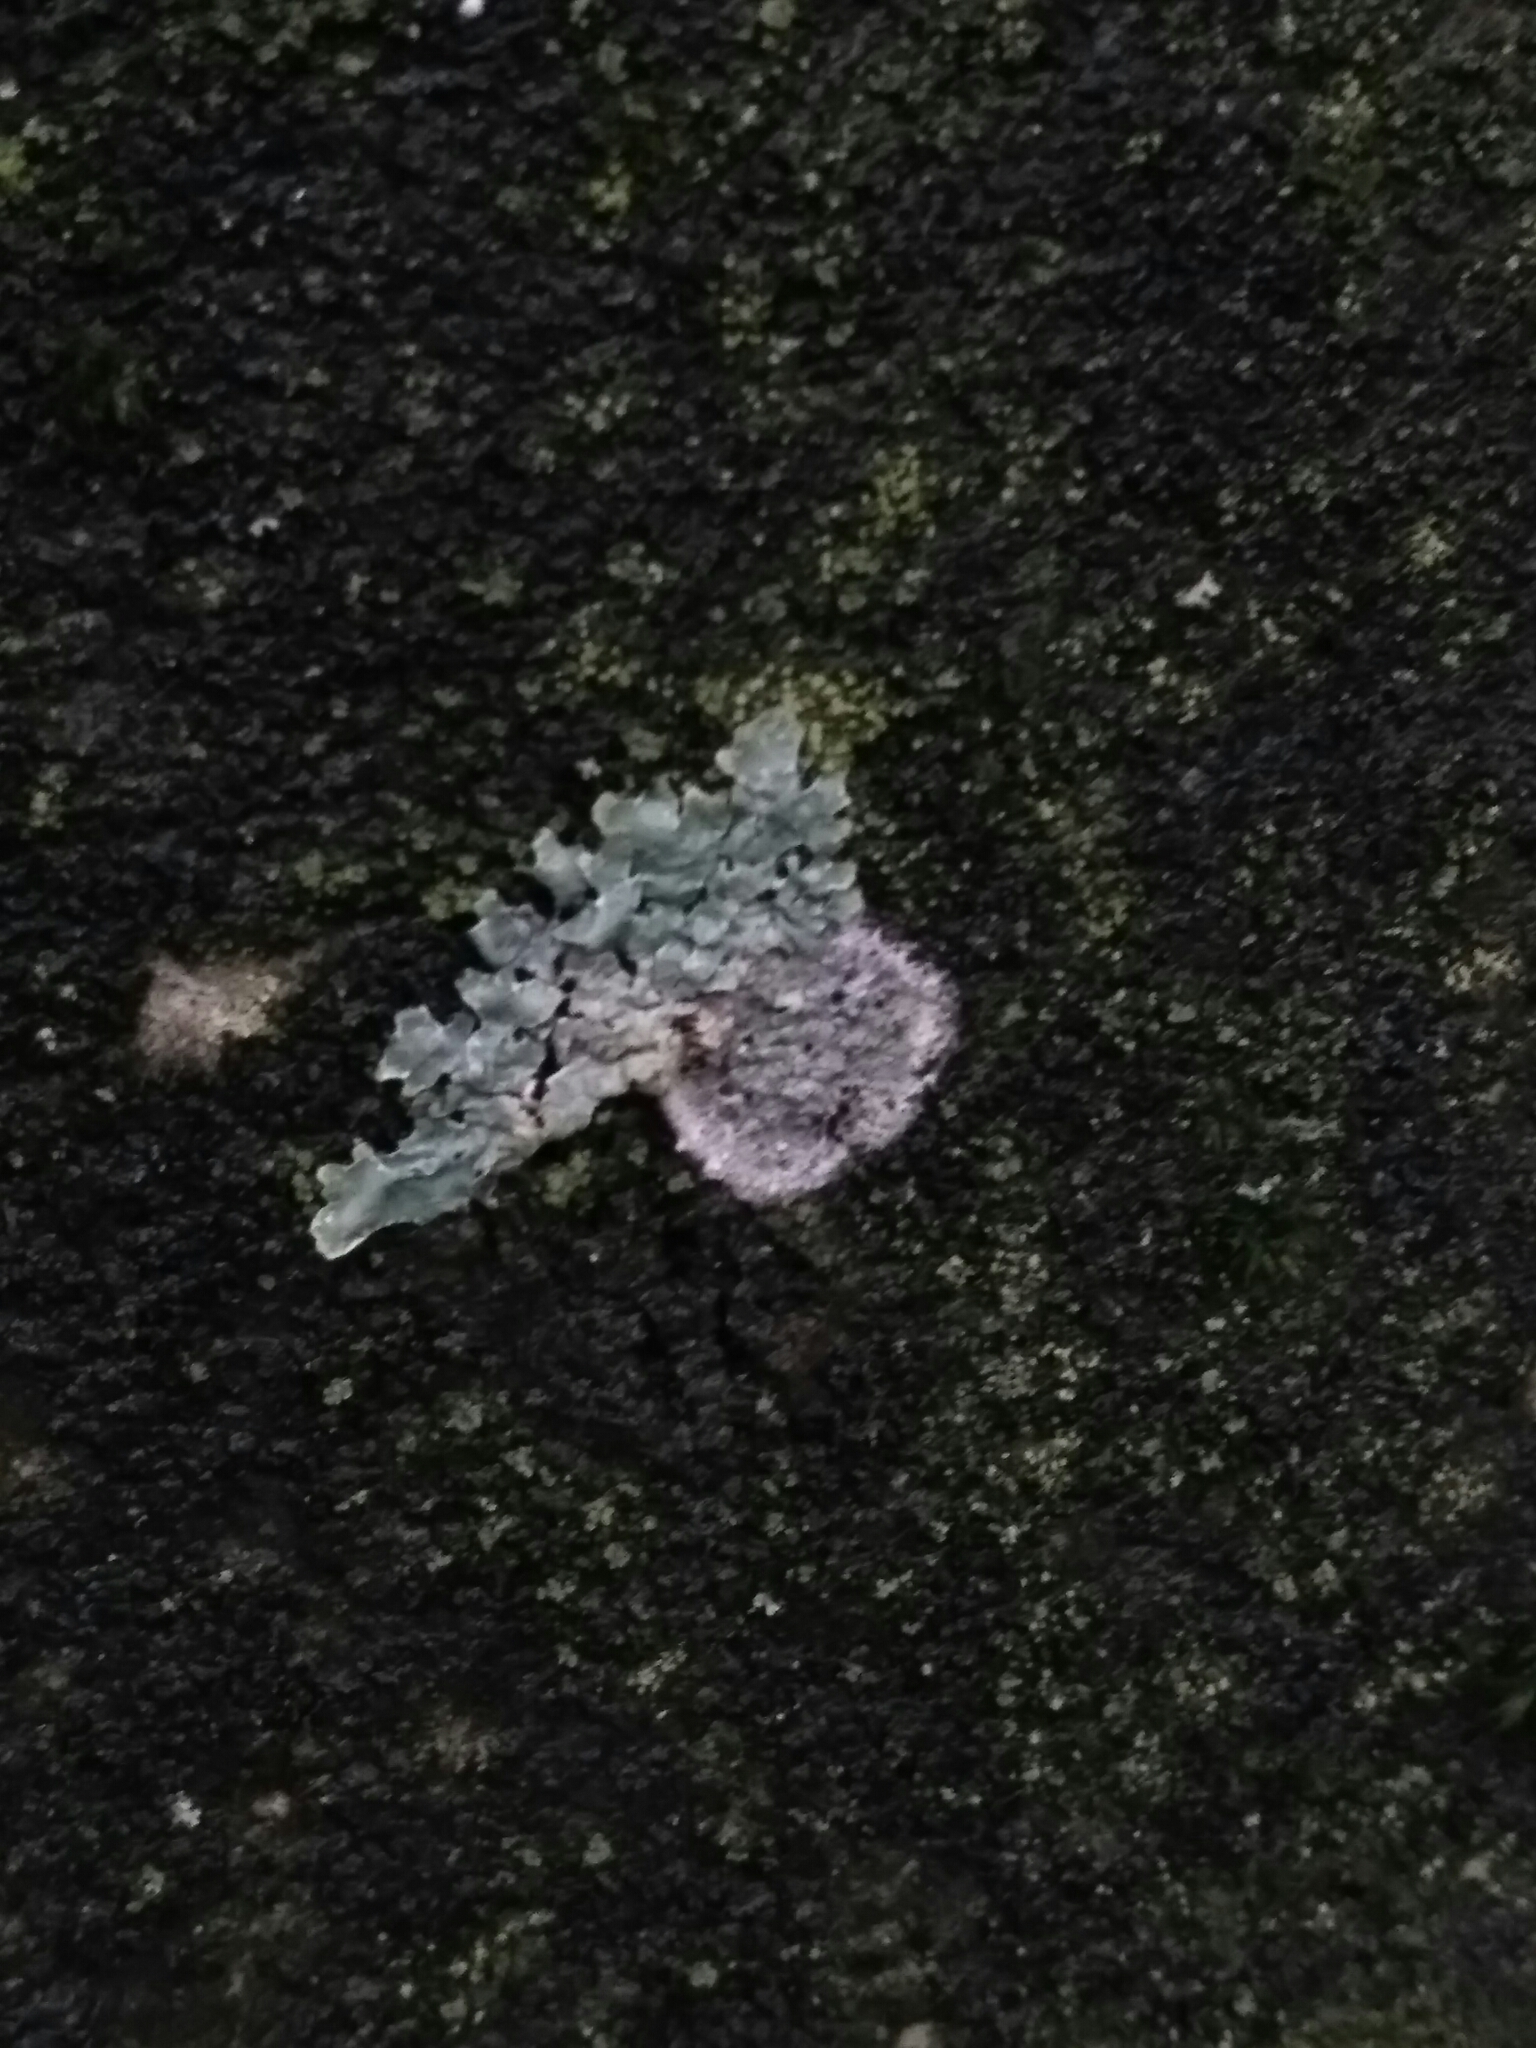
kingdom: Fungi
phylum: Ascomycota
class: Lecanoromycetes
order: Lecanorales
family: Parmeliaceae
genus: Parmelia
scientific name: Parmelia sulcata
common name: Netted shield lichen
